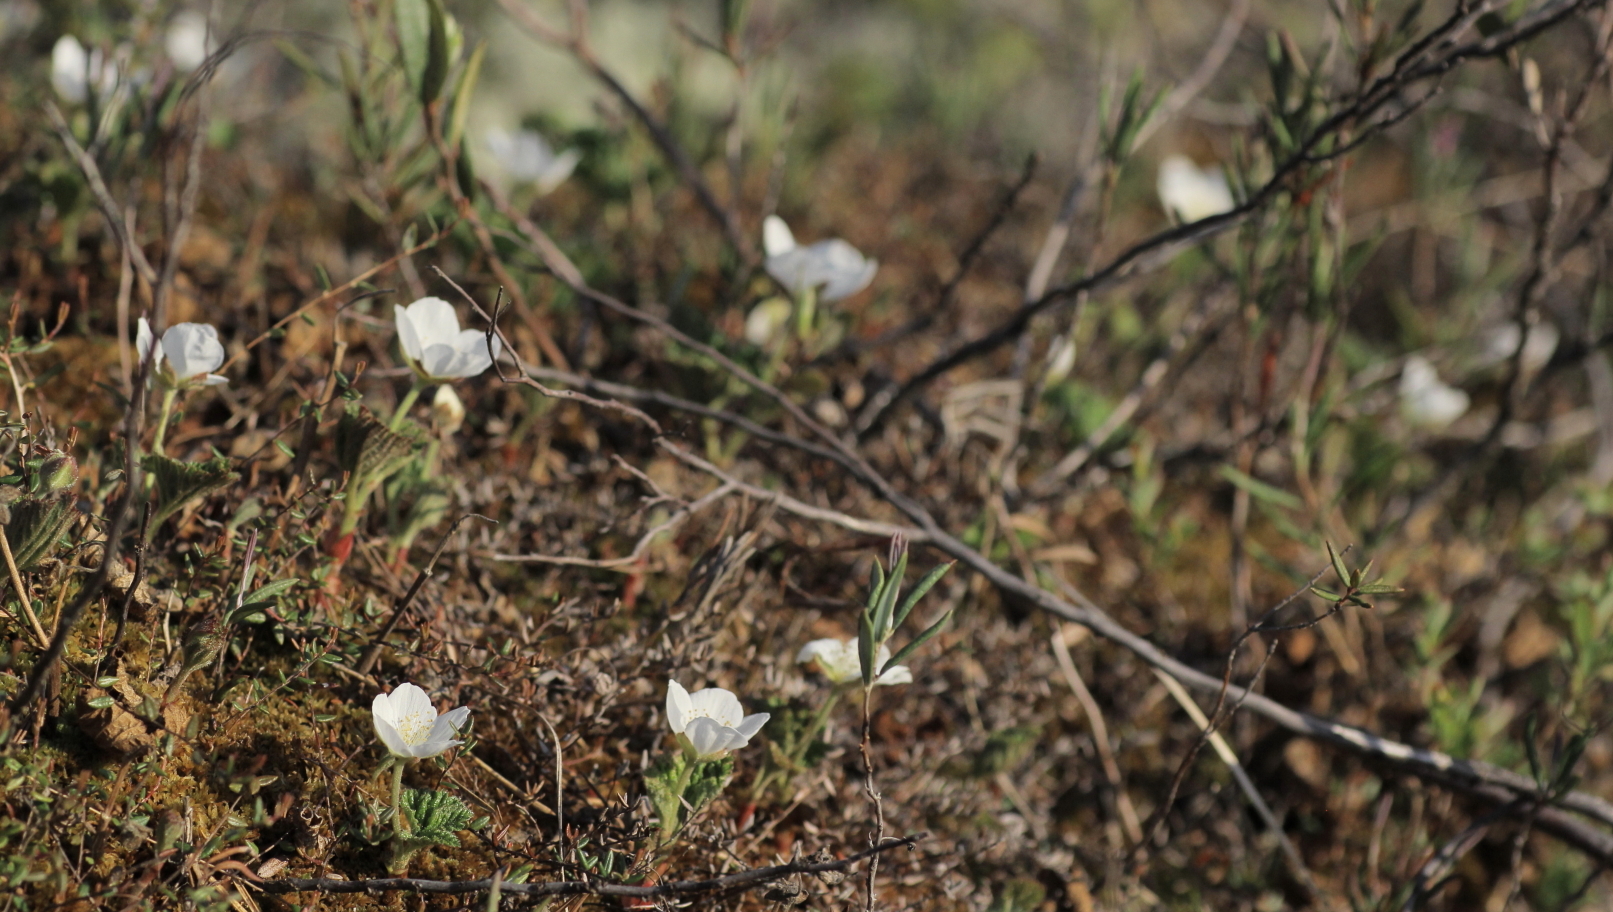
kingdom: Plantae
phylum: Tracheophyta
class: Magnoliopsida
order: Rosales
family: Rosaceae
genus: Rubus
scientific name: Rubus chamaemorus
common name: Cloudberry
